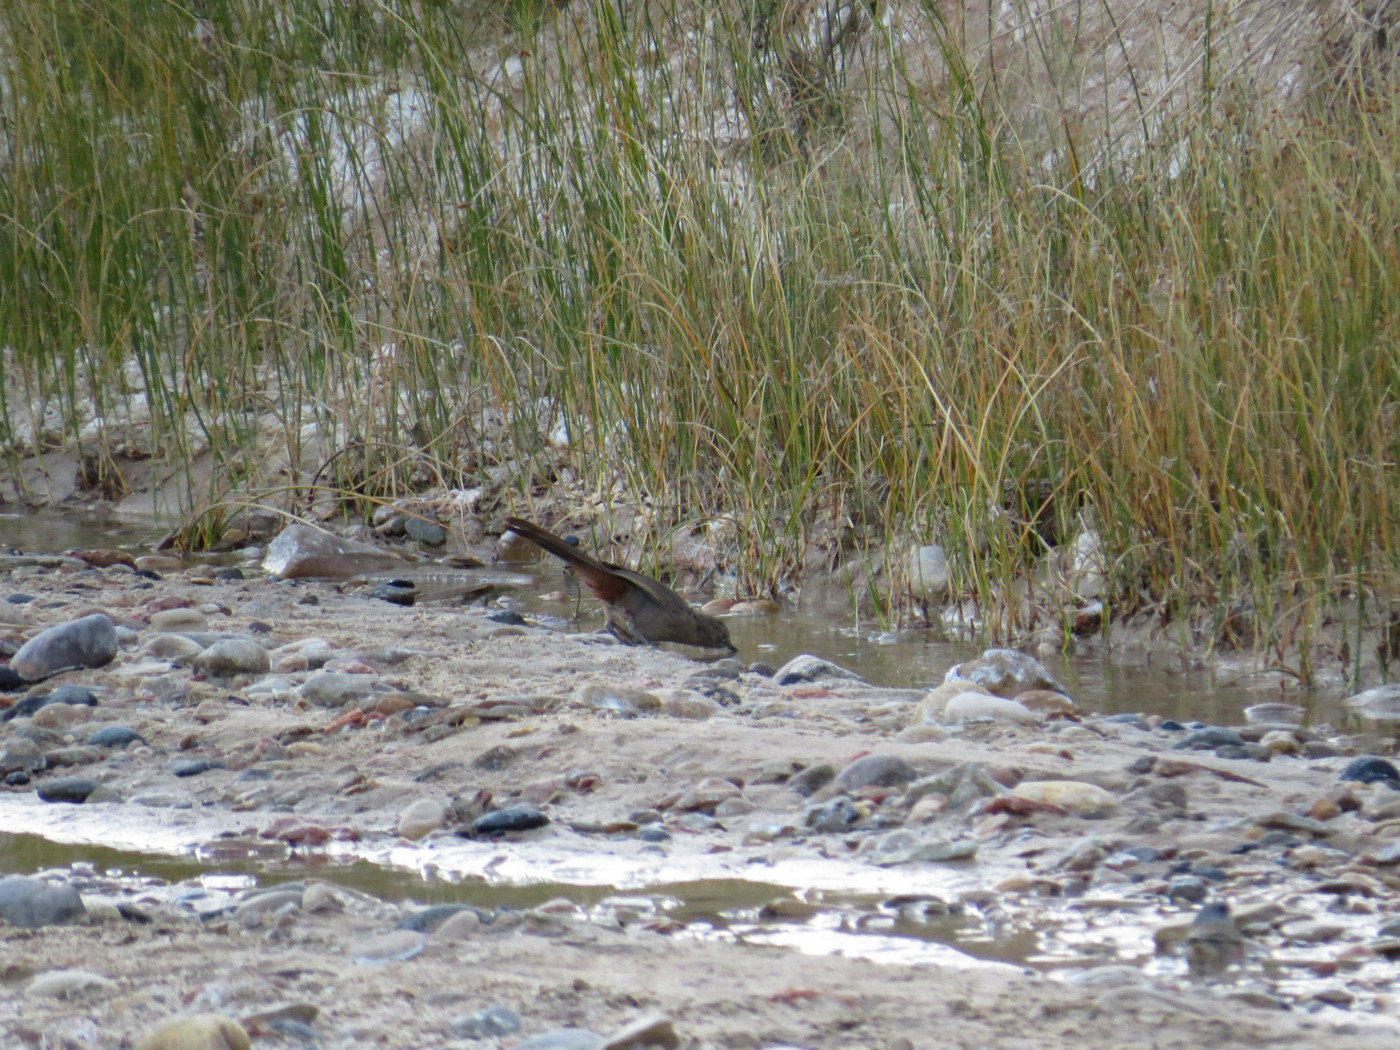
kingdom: Animalia
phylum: Chordata
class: Aves
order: Passeriformes
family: Mimidae
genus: Dumetella
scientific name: Dumetella carolinensis
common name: Gray catbird
